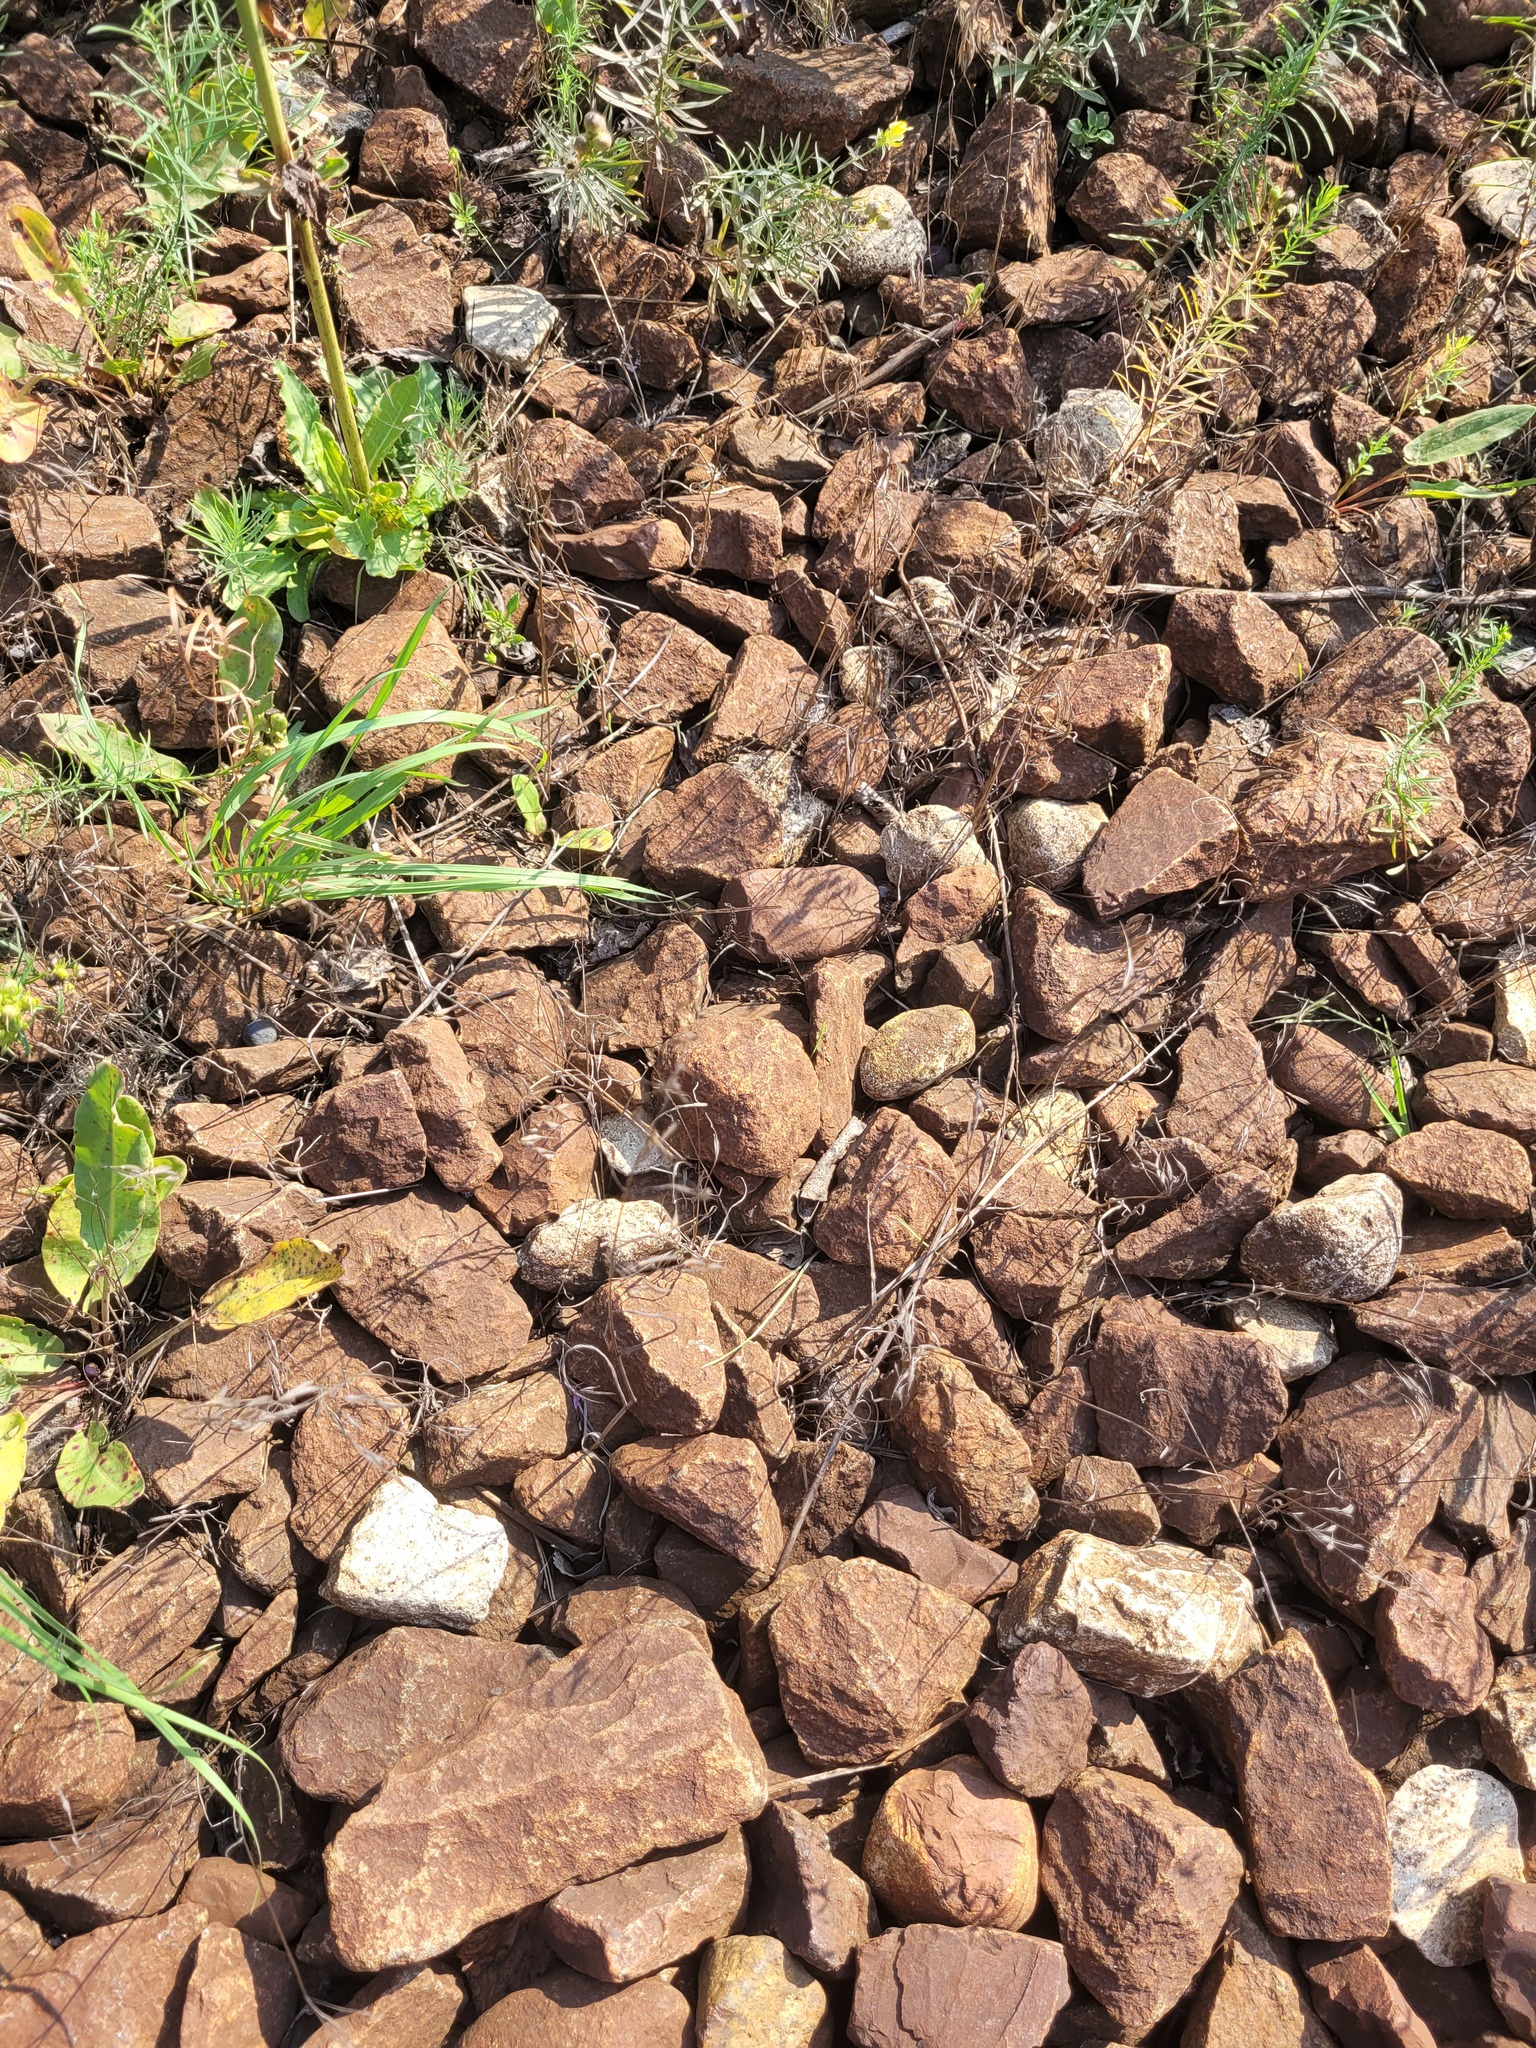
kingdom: Plantae
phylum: Tracheophyta
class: Liliopsida
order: Poales
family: Poaceae
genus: Bromus
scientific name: Bromus tectorum
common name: Cheatgrass
